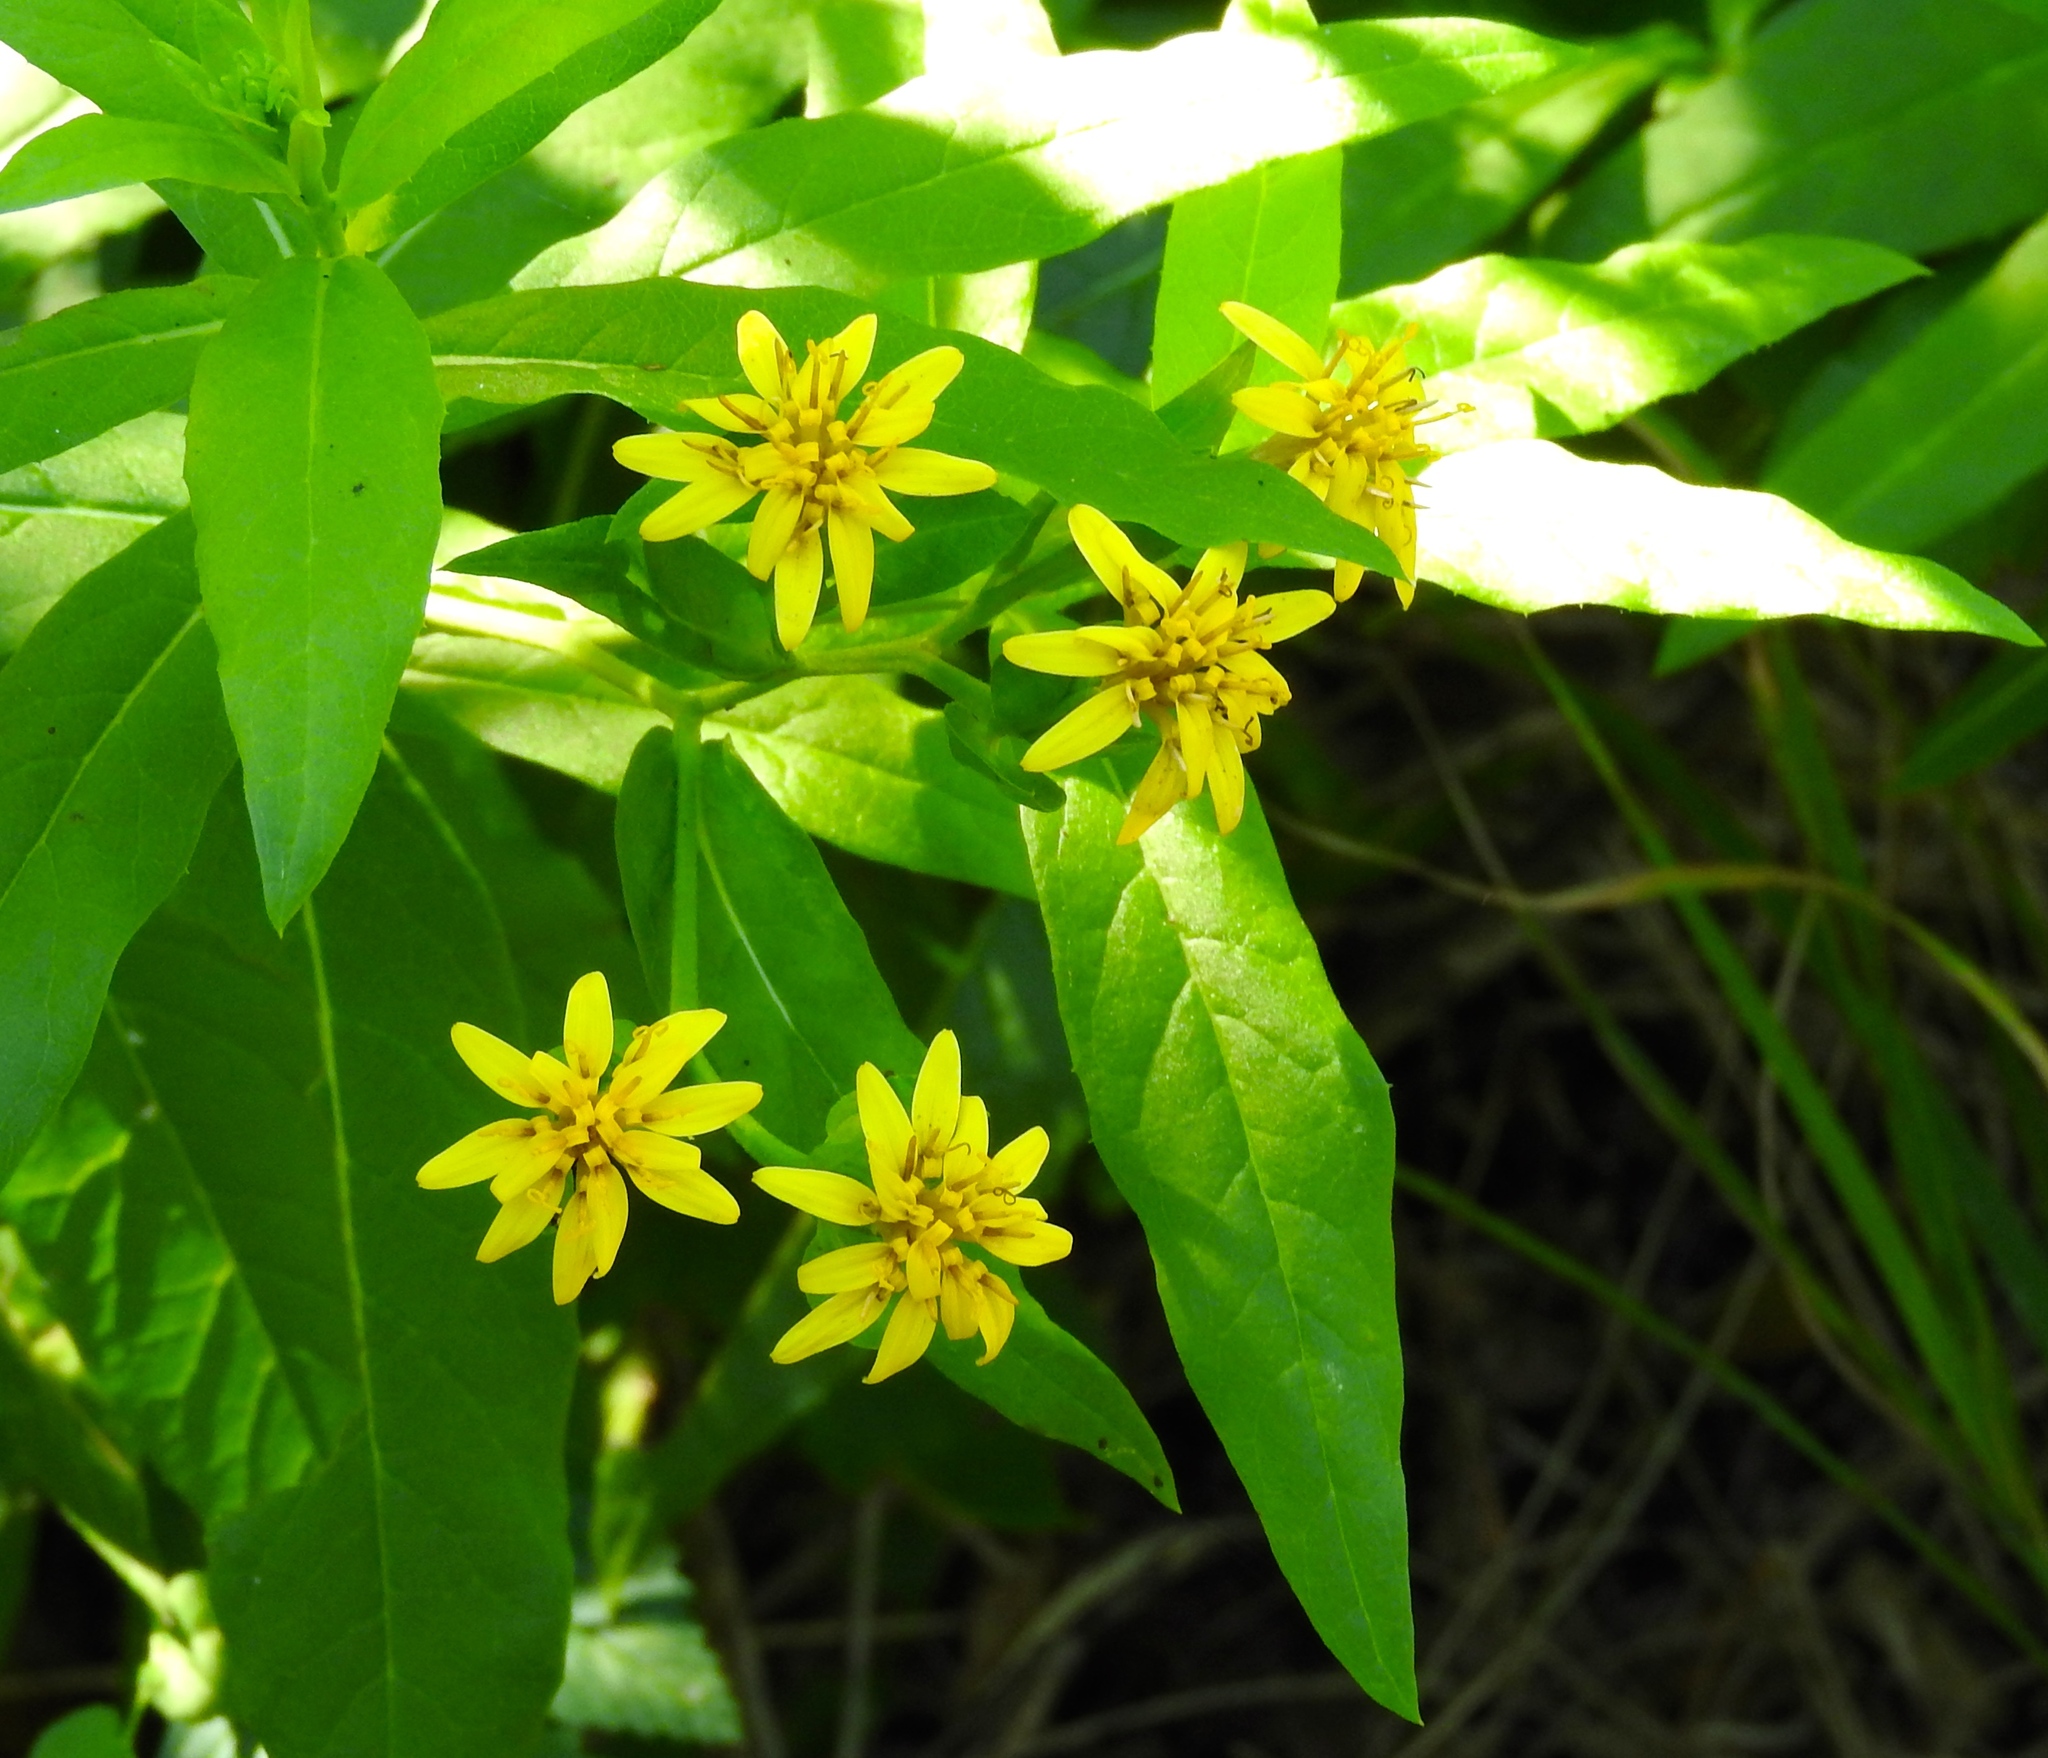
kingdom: Plantae
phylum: Tracheophyta
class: Magnoliopsida
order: Asterales
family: Asteraceae
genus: Trixis
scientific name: Trixis pterocaulis
